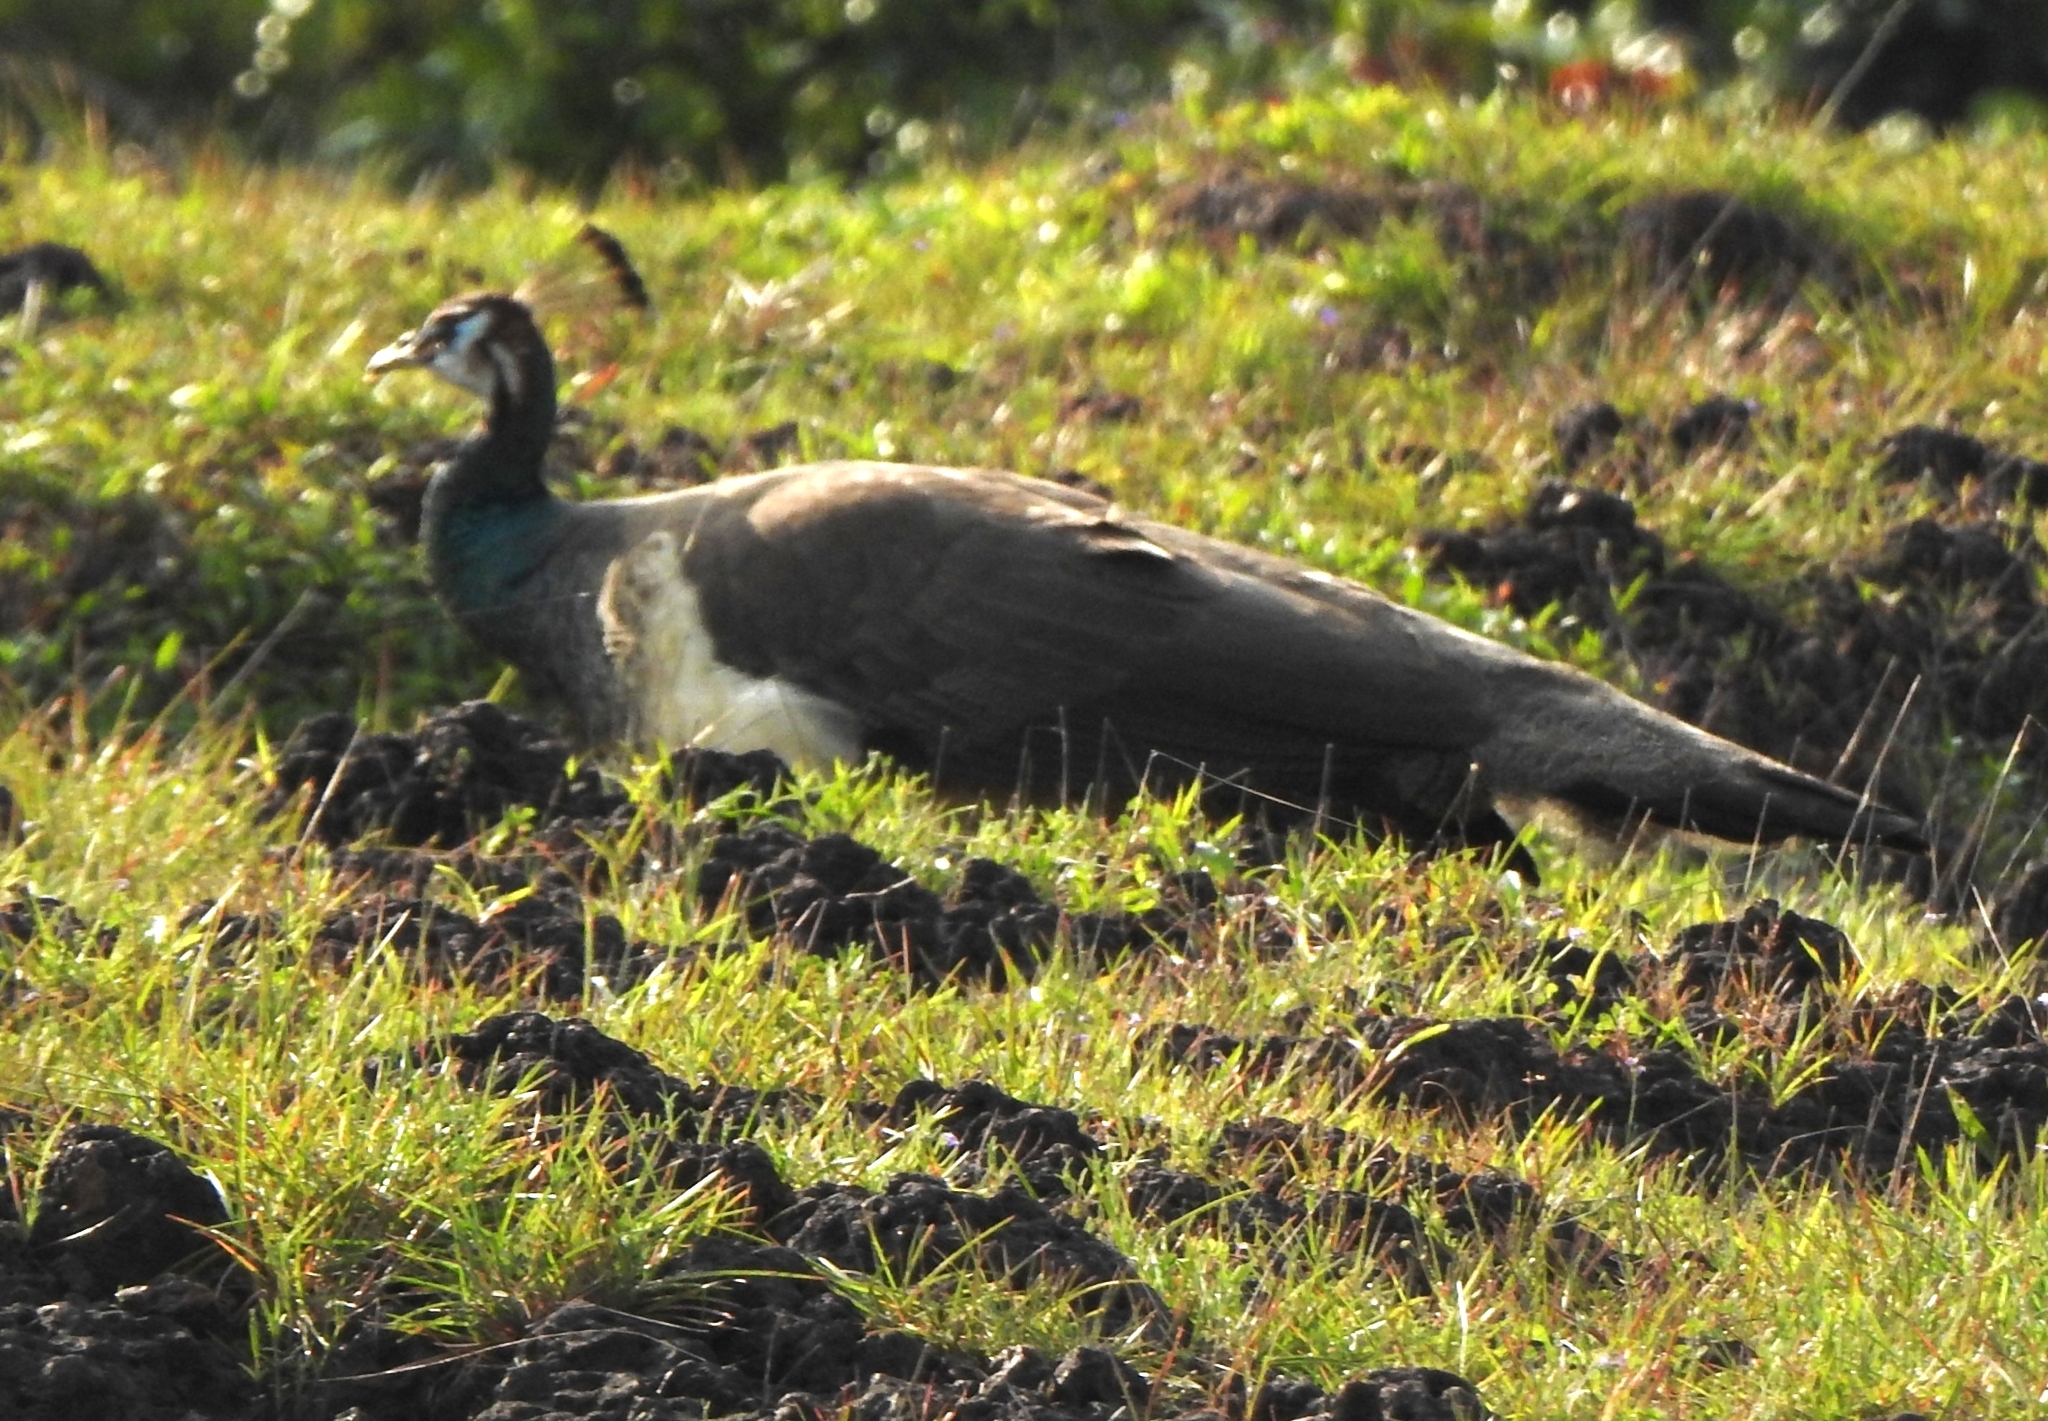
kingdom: Animalia
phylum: Chordata
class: Aves
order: Galliformes
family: Phasianidae
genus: Pavo
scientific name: Pavo cristatus
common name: Indian peafowl
